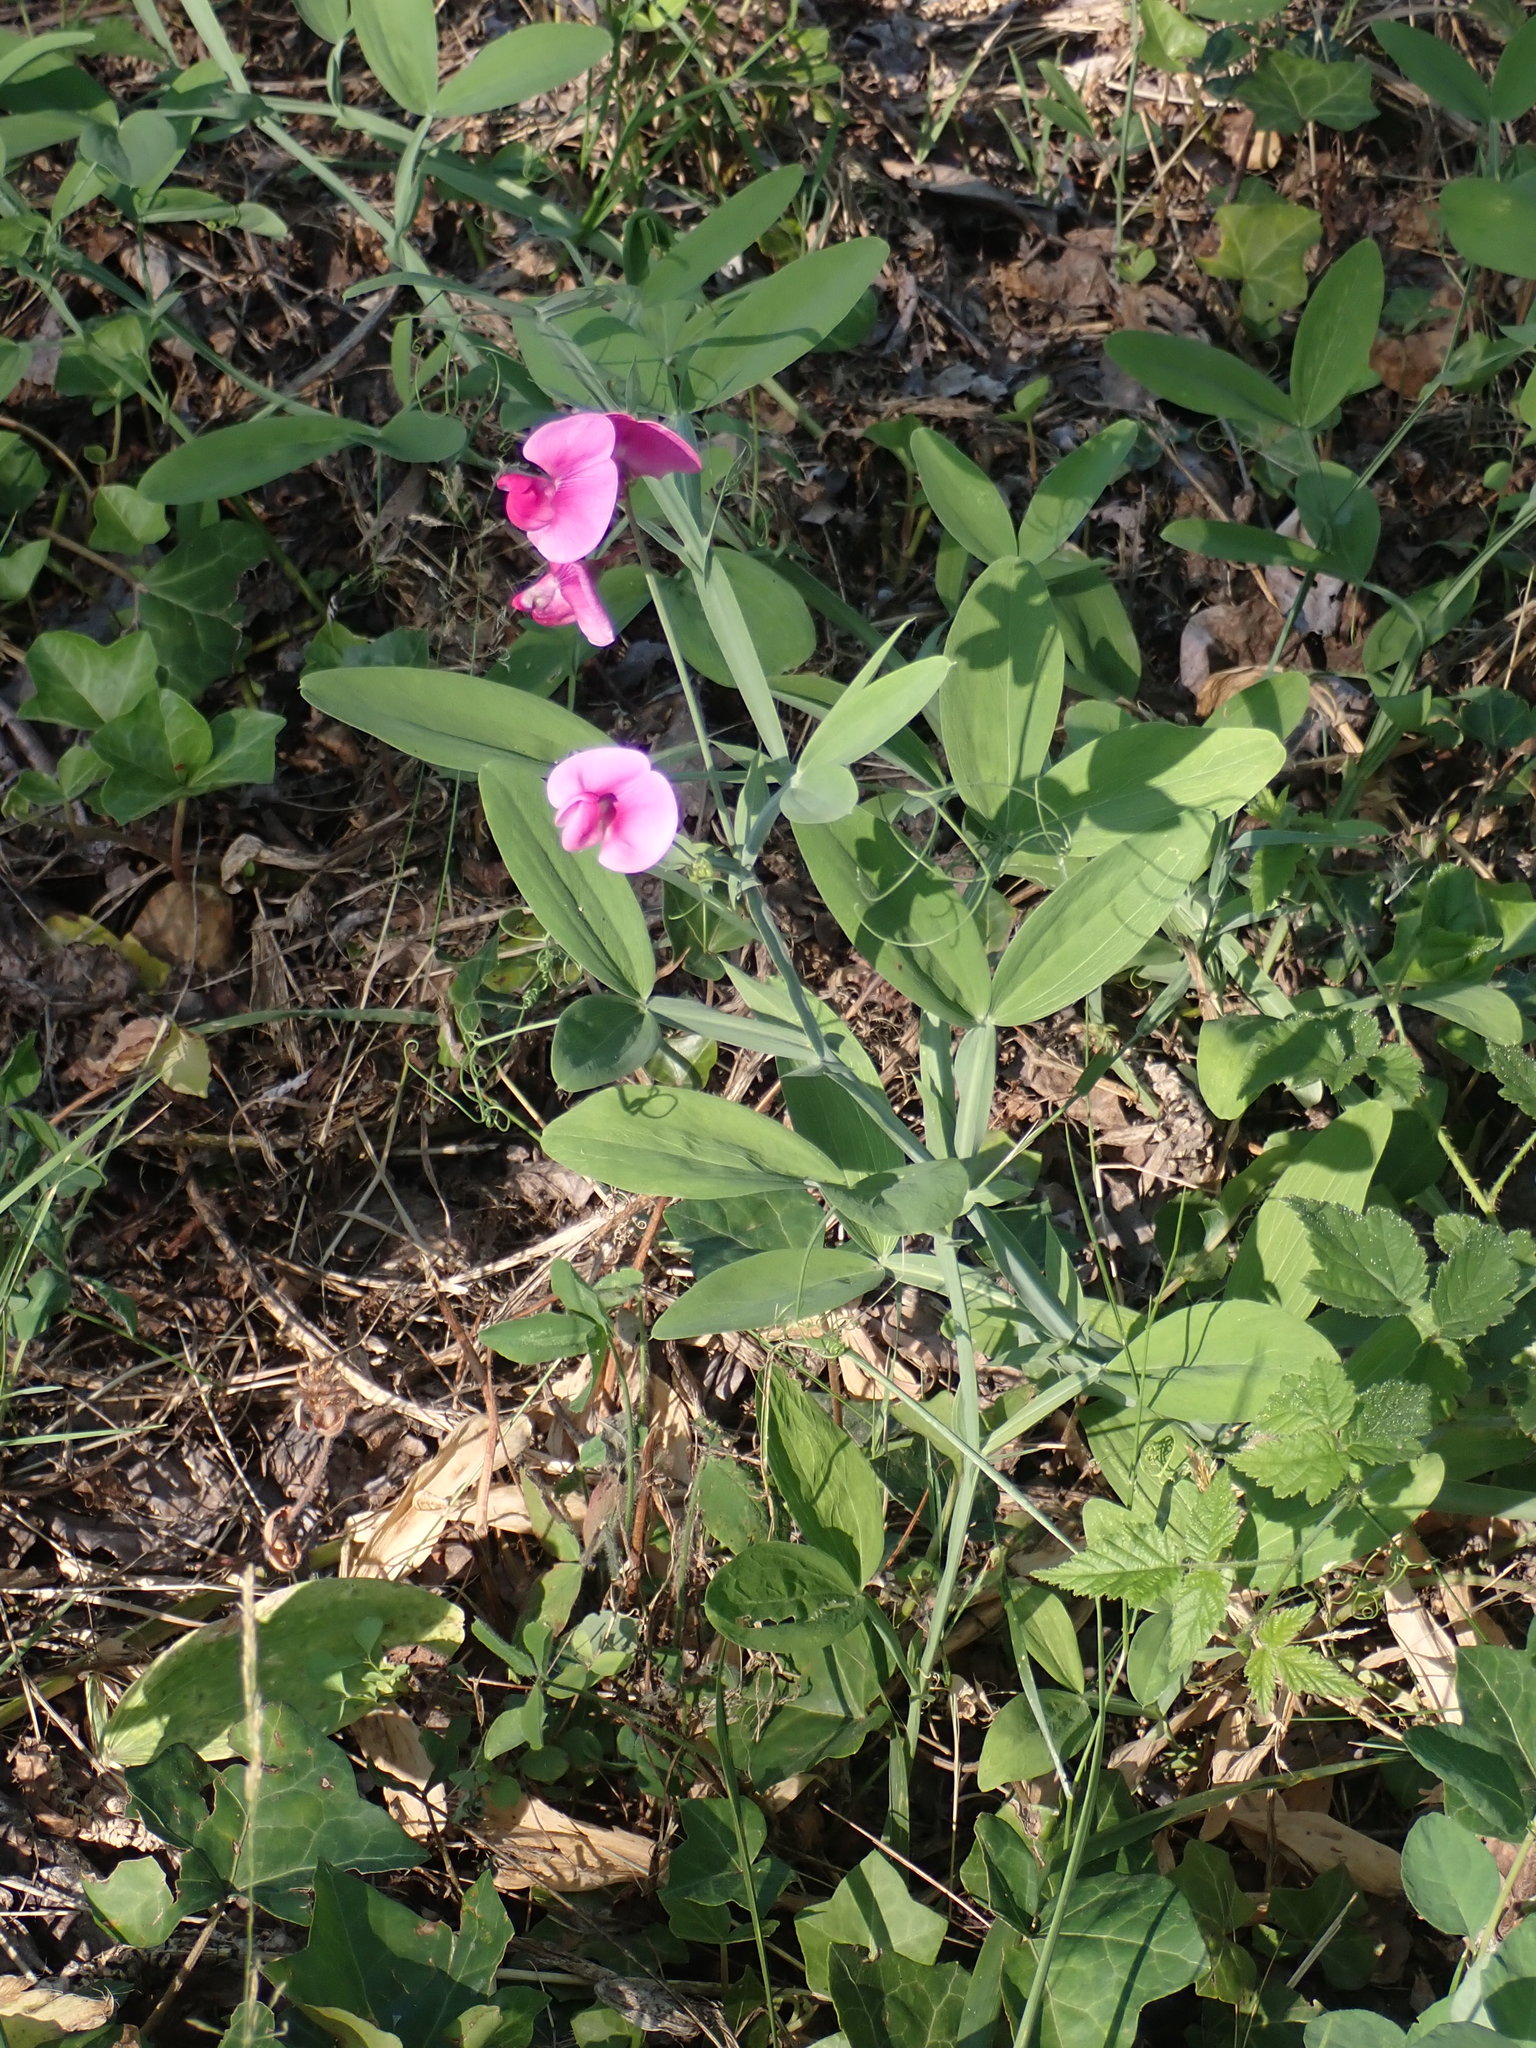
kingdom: Plantae
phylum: Tracheophyta
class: Magnoliopsida
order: Fabales
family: Fabaceae
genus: Lathyrus
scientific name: Lathyrus latifolius
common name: Perennial pea
